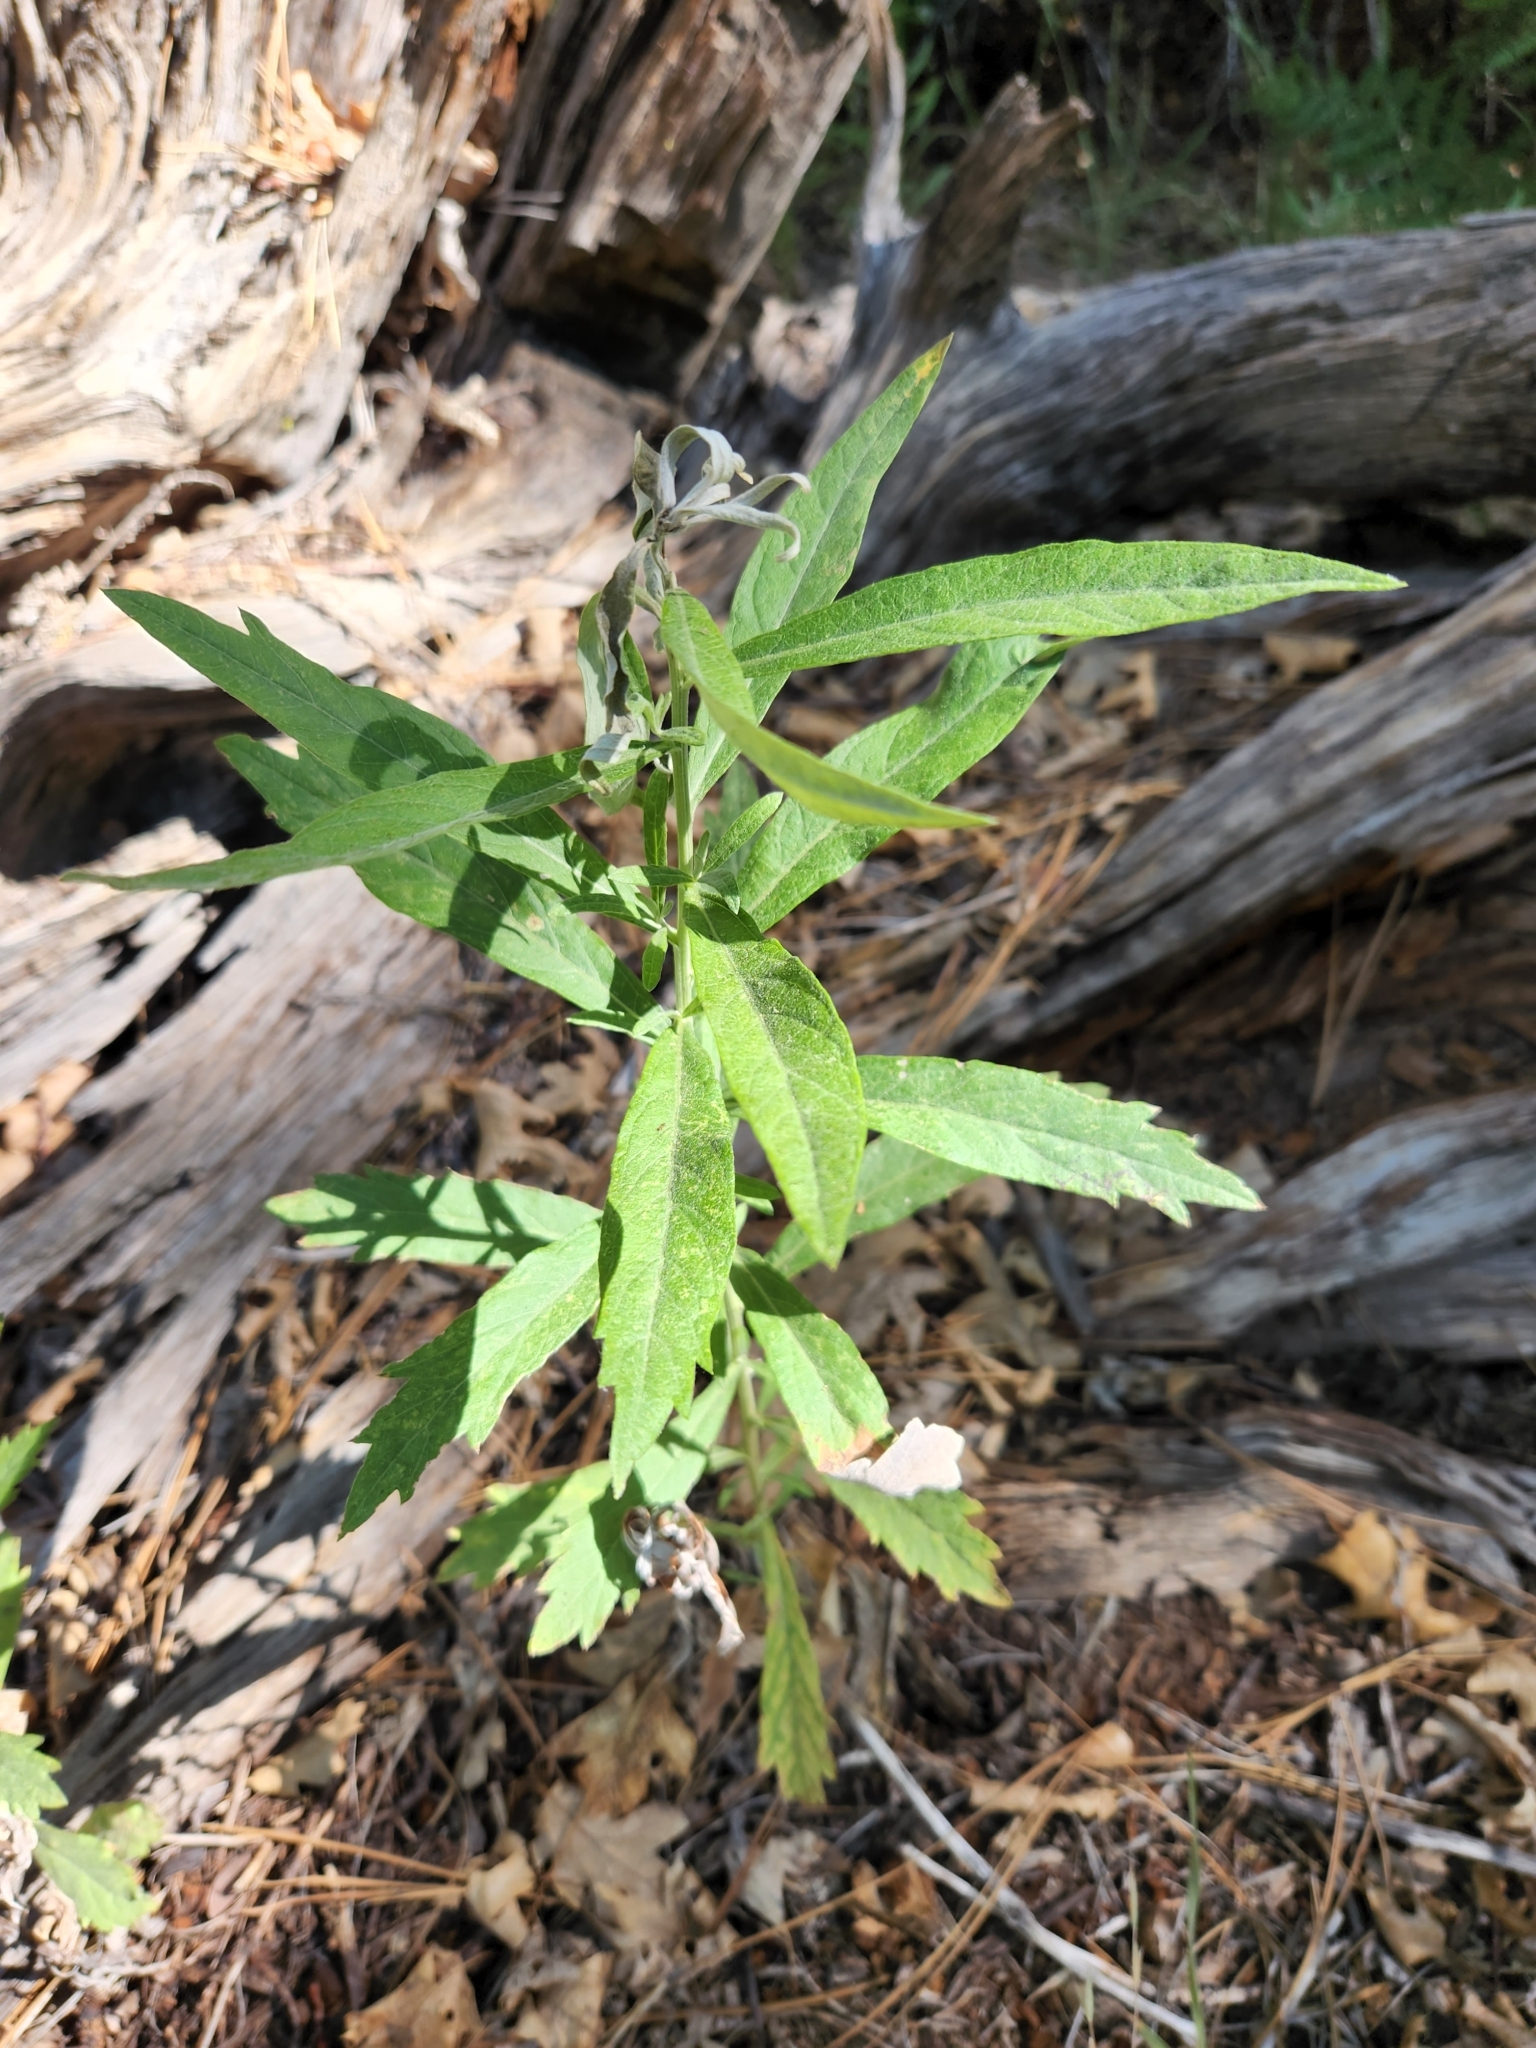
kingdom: Plantae
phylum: Tracheophyta
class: Magnoliopsida
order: Asterales
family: Asteraceae
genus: Artemisia
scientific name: Artemisia douglasiana
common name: Northwest mugwort
